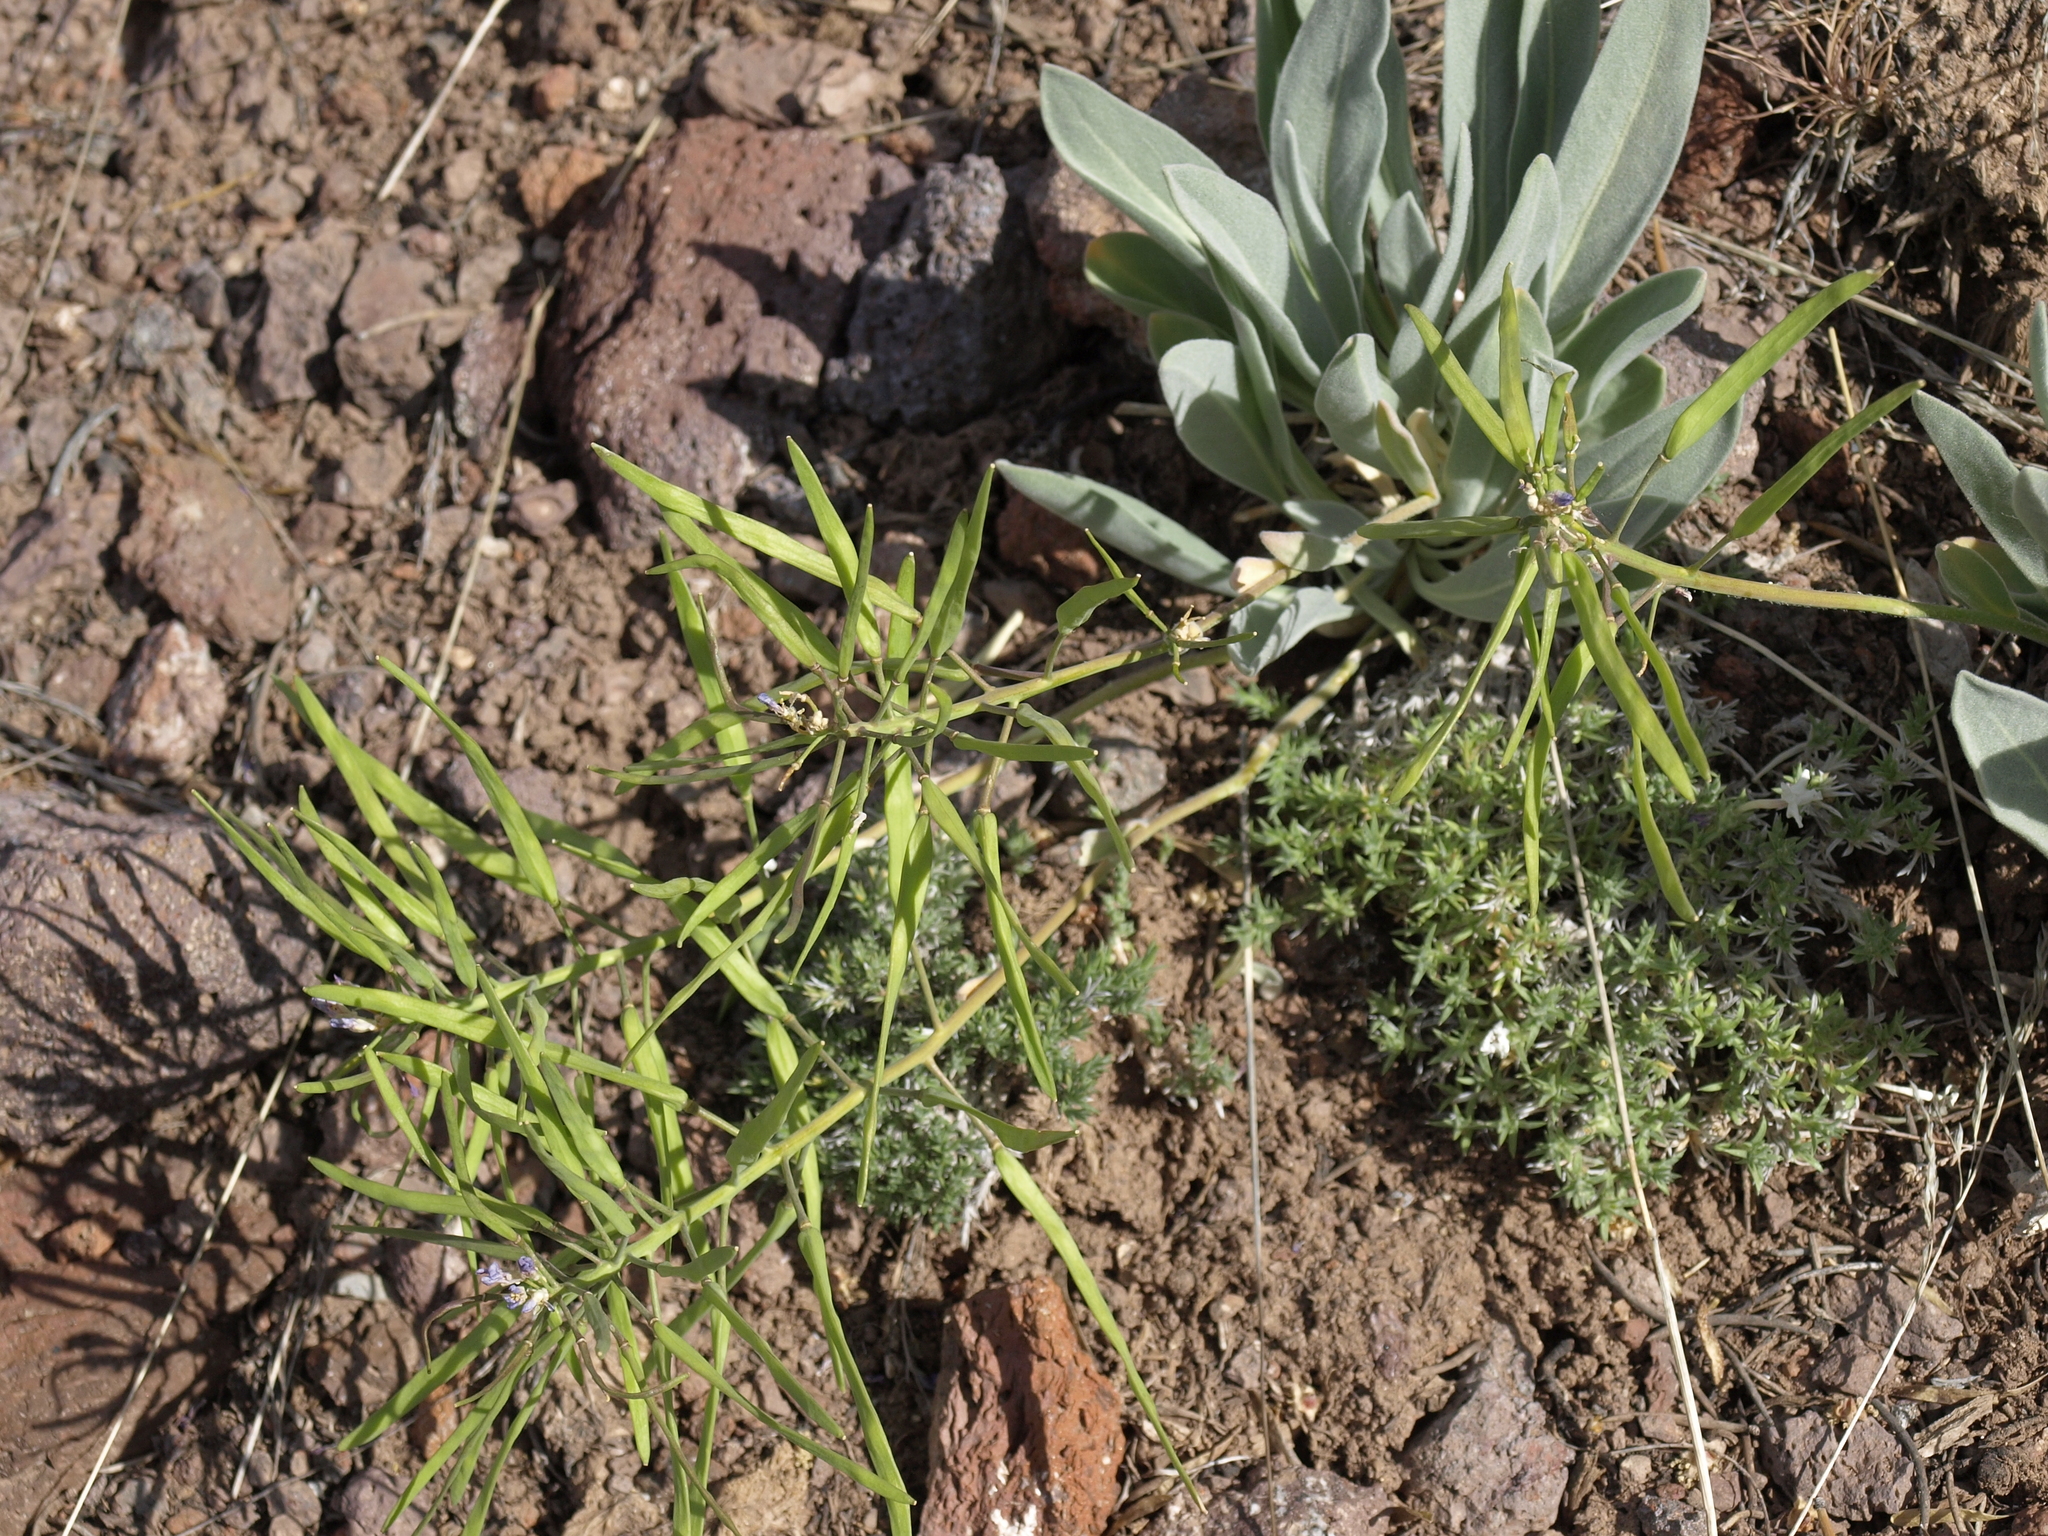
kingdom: Plantae
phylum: Tracheophyta
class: Magnoliopsida
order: Brassicales
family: Brassicaceae
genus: Phoenicaulis
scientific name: Phoenicaulis cheiranthoides
